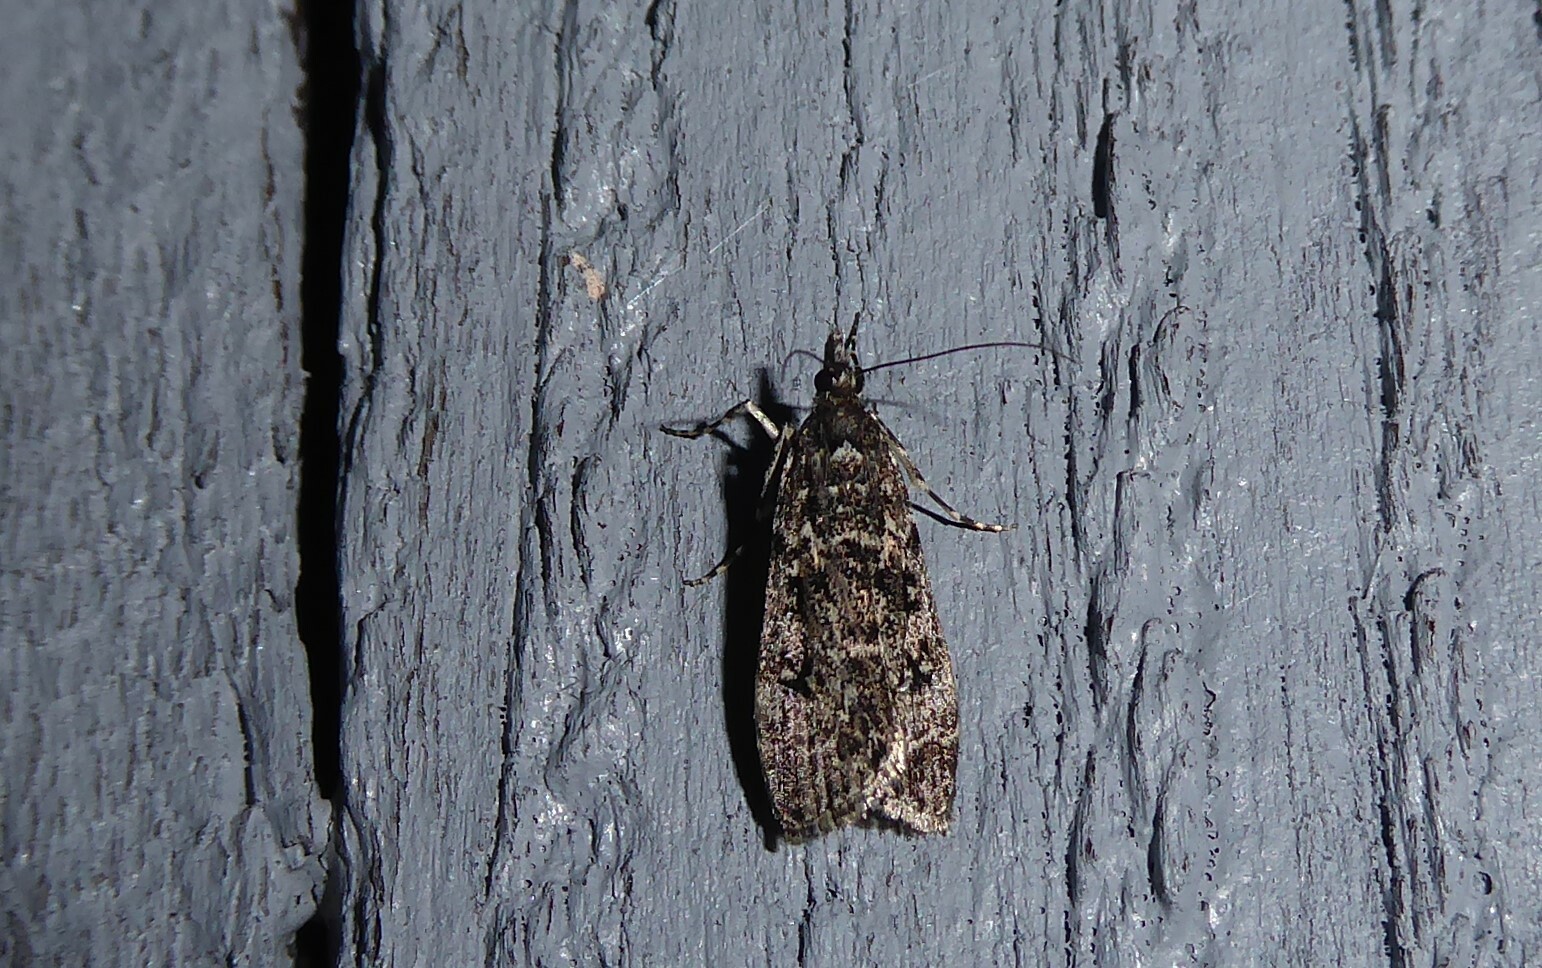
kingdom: Animalia
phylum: Arthropoda
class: Insecta
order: Lepidoptera
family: Crambidae
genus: Eudonia
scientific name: Eudonia philerga
